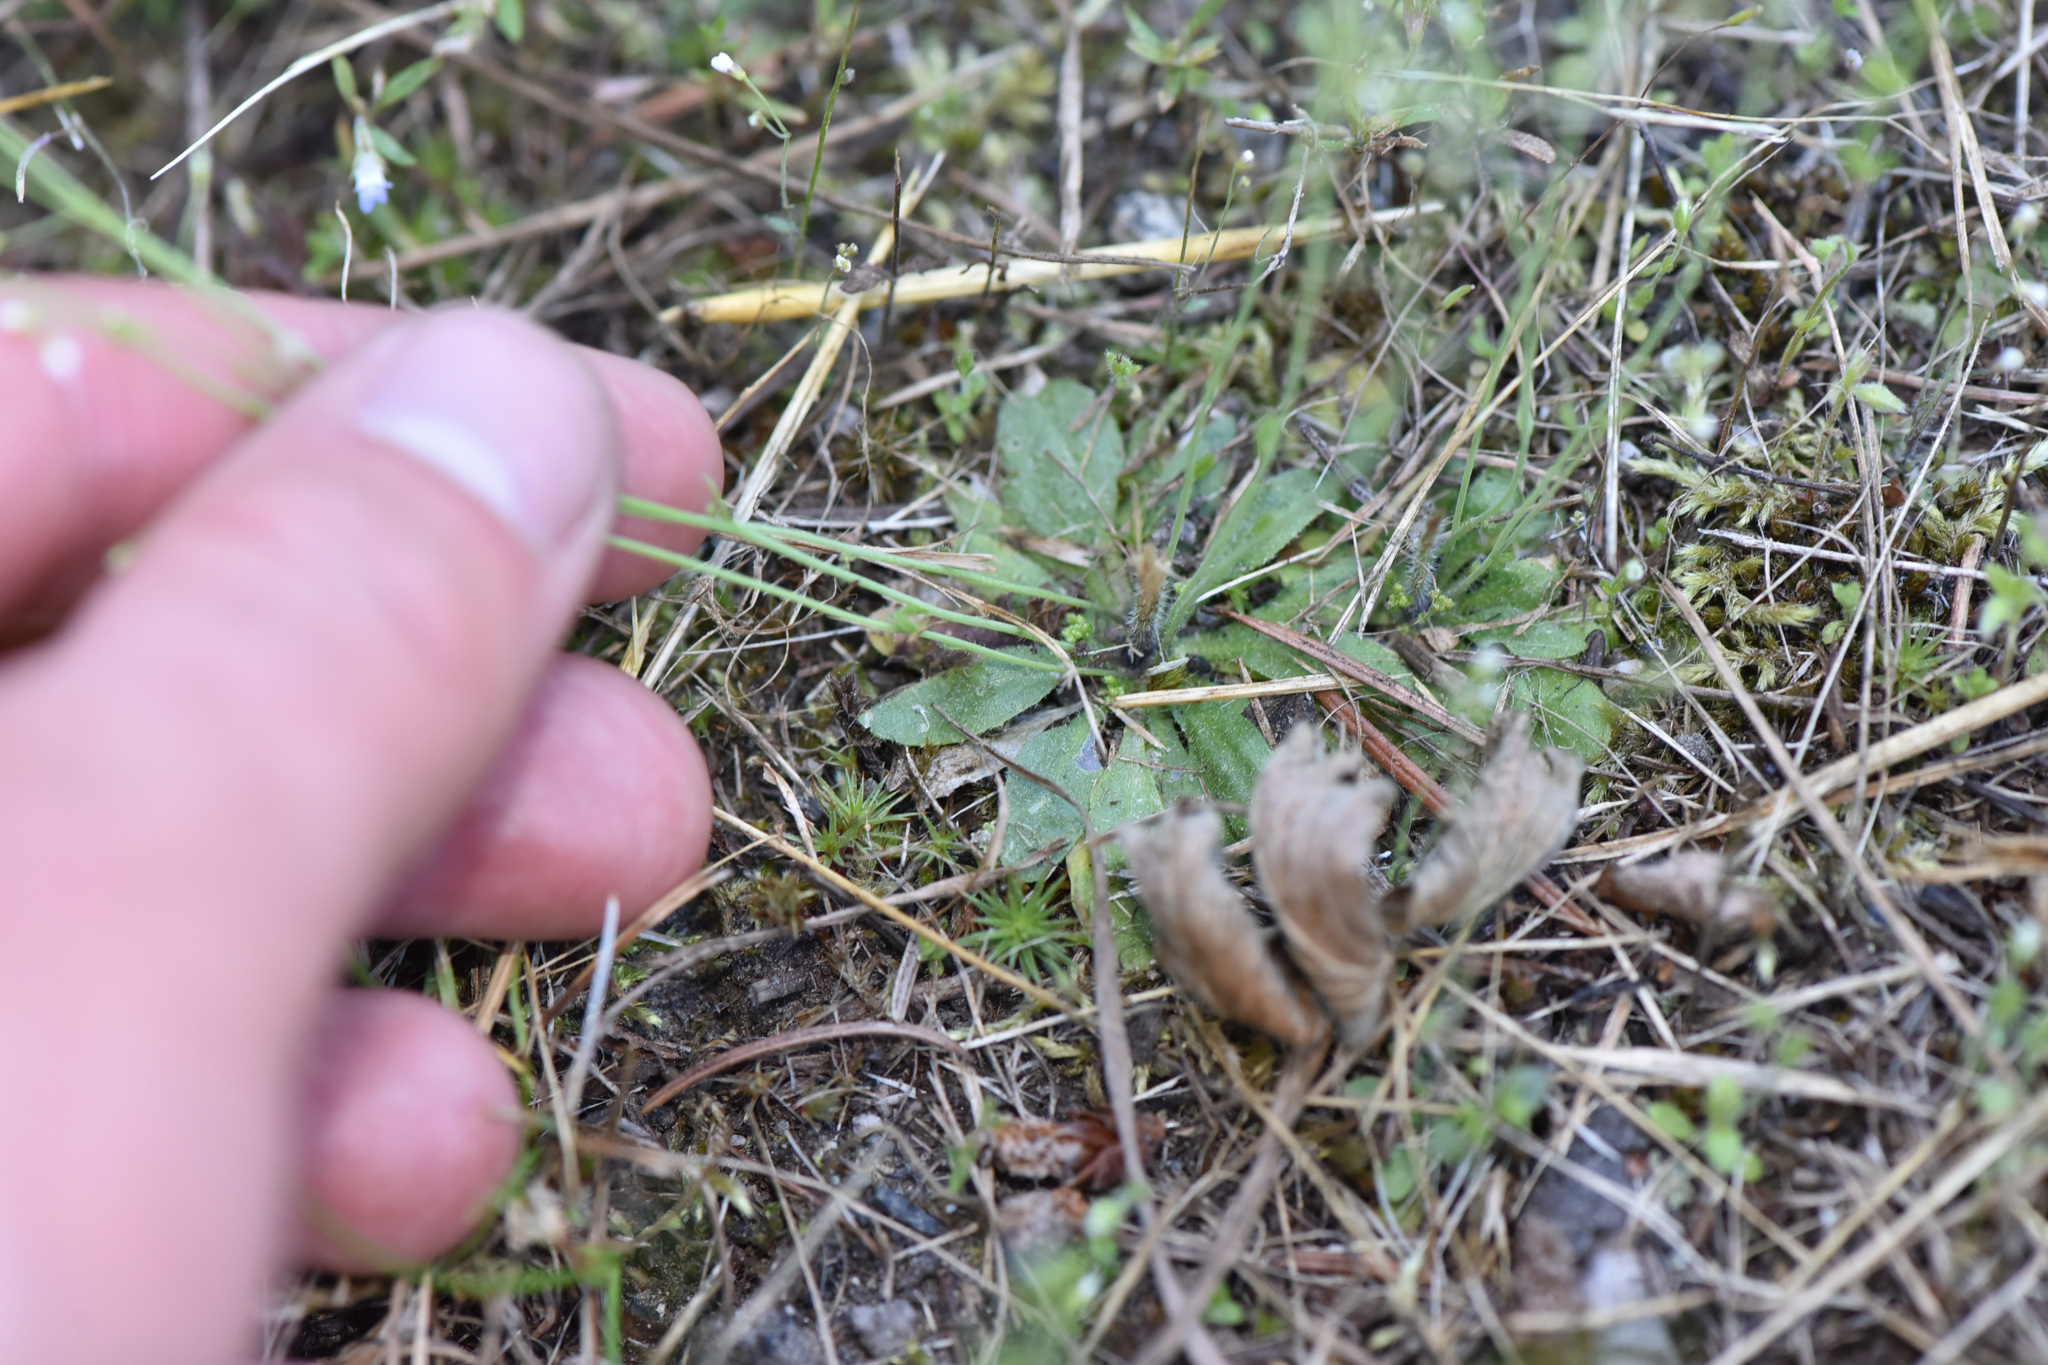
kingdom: Plantae
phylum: Tracheophyta
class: Magnoliopsida
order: Brassicales
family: Brassicaceae
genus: Arabidopsis
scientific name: Arabidopsis thaliana
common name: Thale cress
